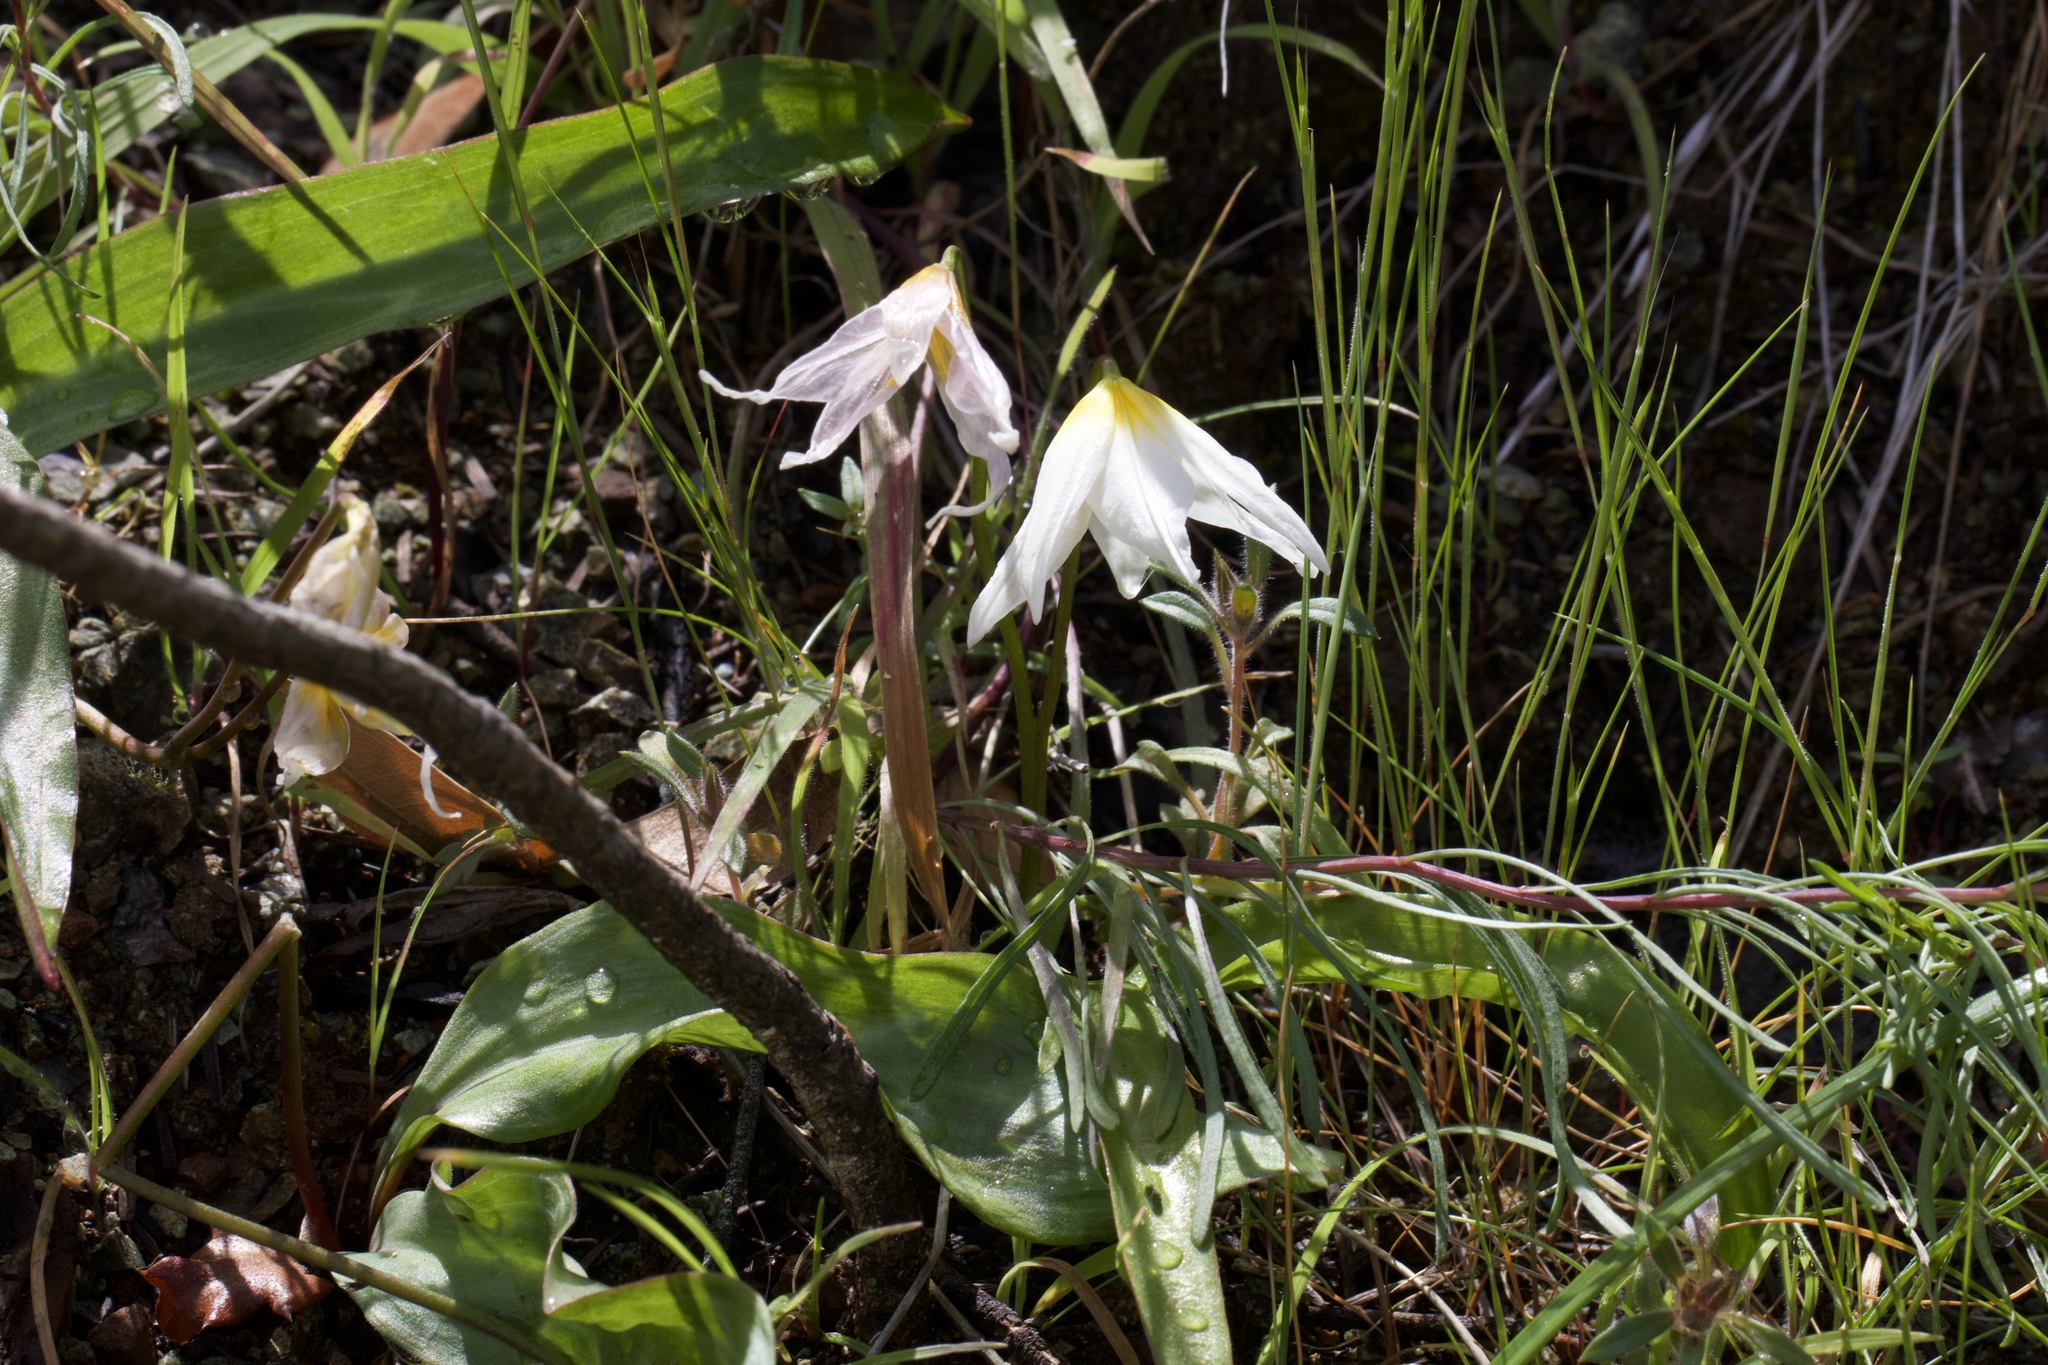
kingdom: Plantae
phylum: Tracheophyta
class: Liliopsida
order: Liliales
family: Liliaceae
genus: Erythronium
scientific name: Erythronium helenae
